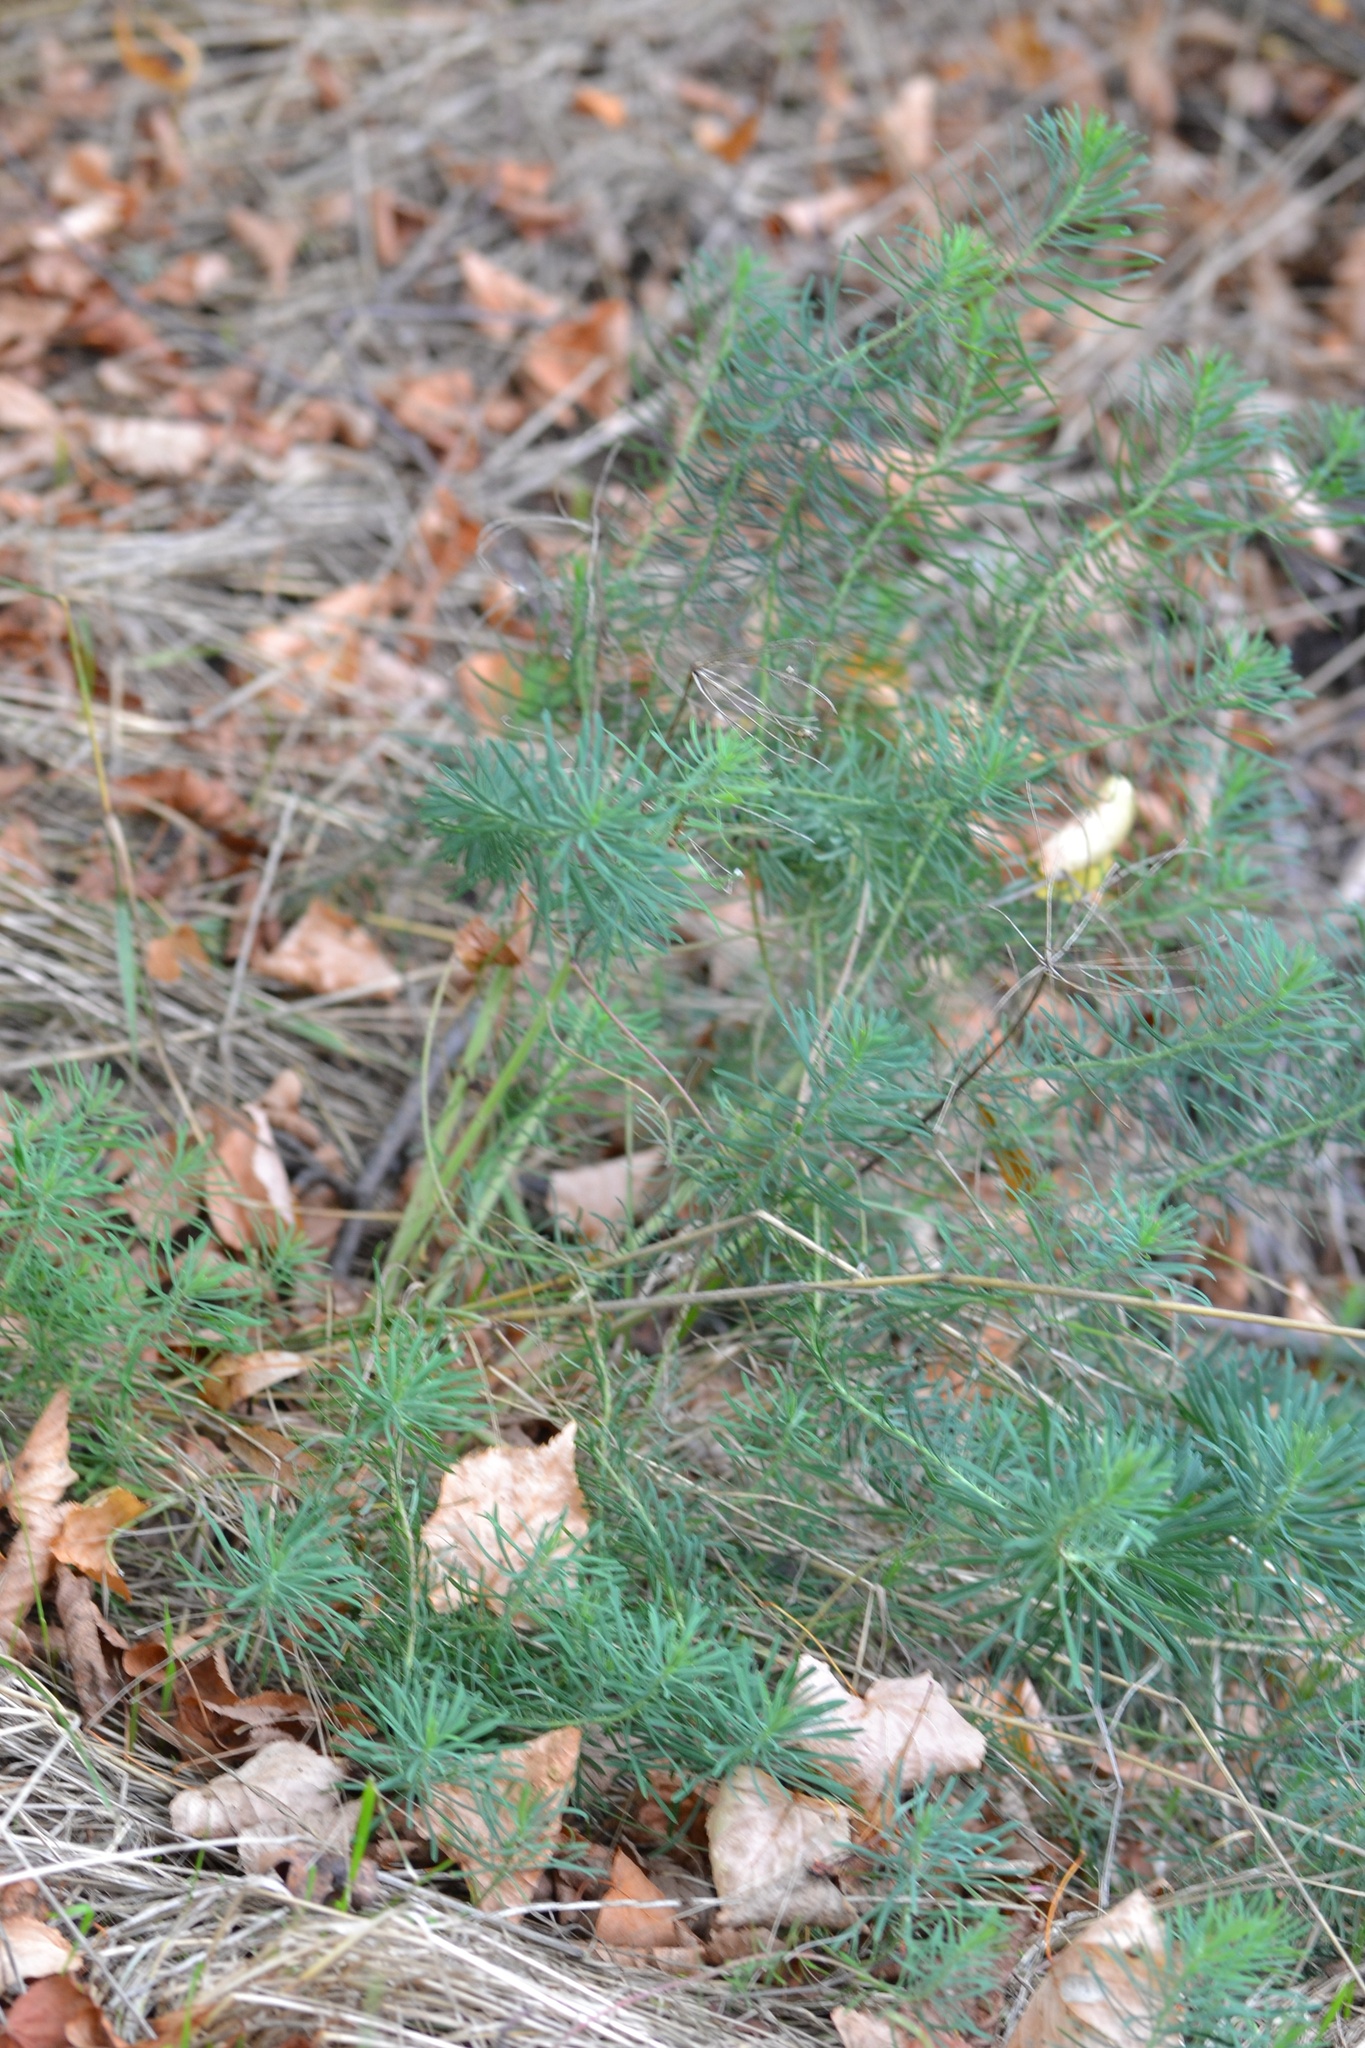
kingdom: Plantae
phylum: Tracheophyta
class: Magnoliopsida
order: Malpighiales
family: Euphorbiaceae
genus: Euphorbia
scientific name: Euphorbia cyparissias
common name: Cypress spurge
